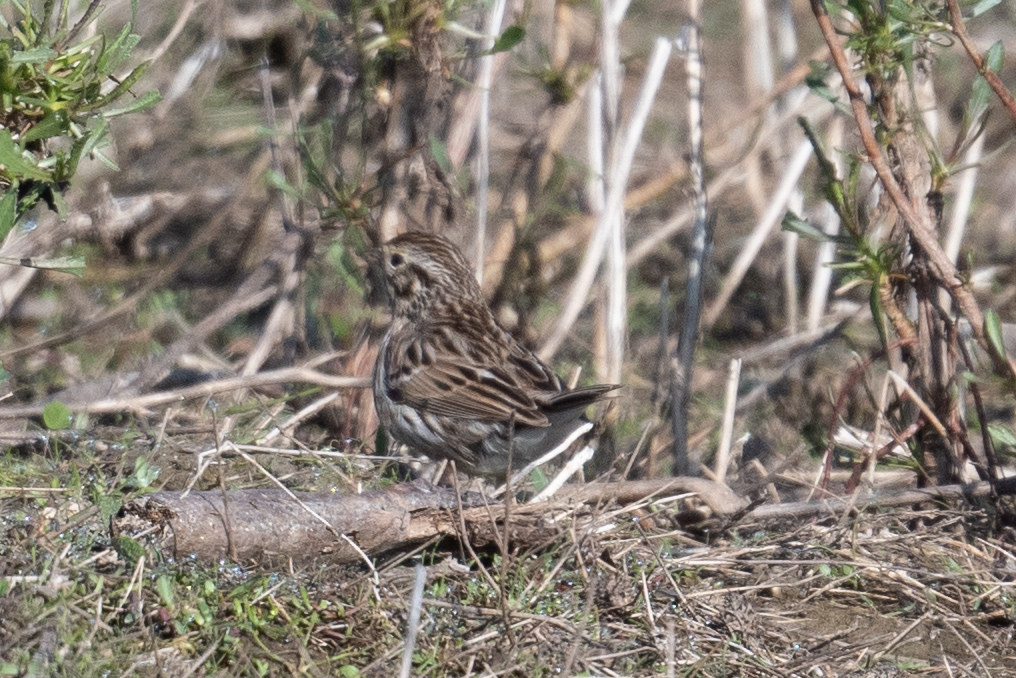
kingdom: Animalia
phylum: Chordata
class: Aves
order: Passeriformes
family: Passerellidae
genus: Passerculus
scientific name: Passerculus sandwichensis
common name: Savannah sparrow
